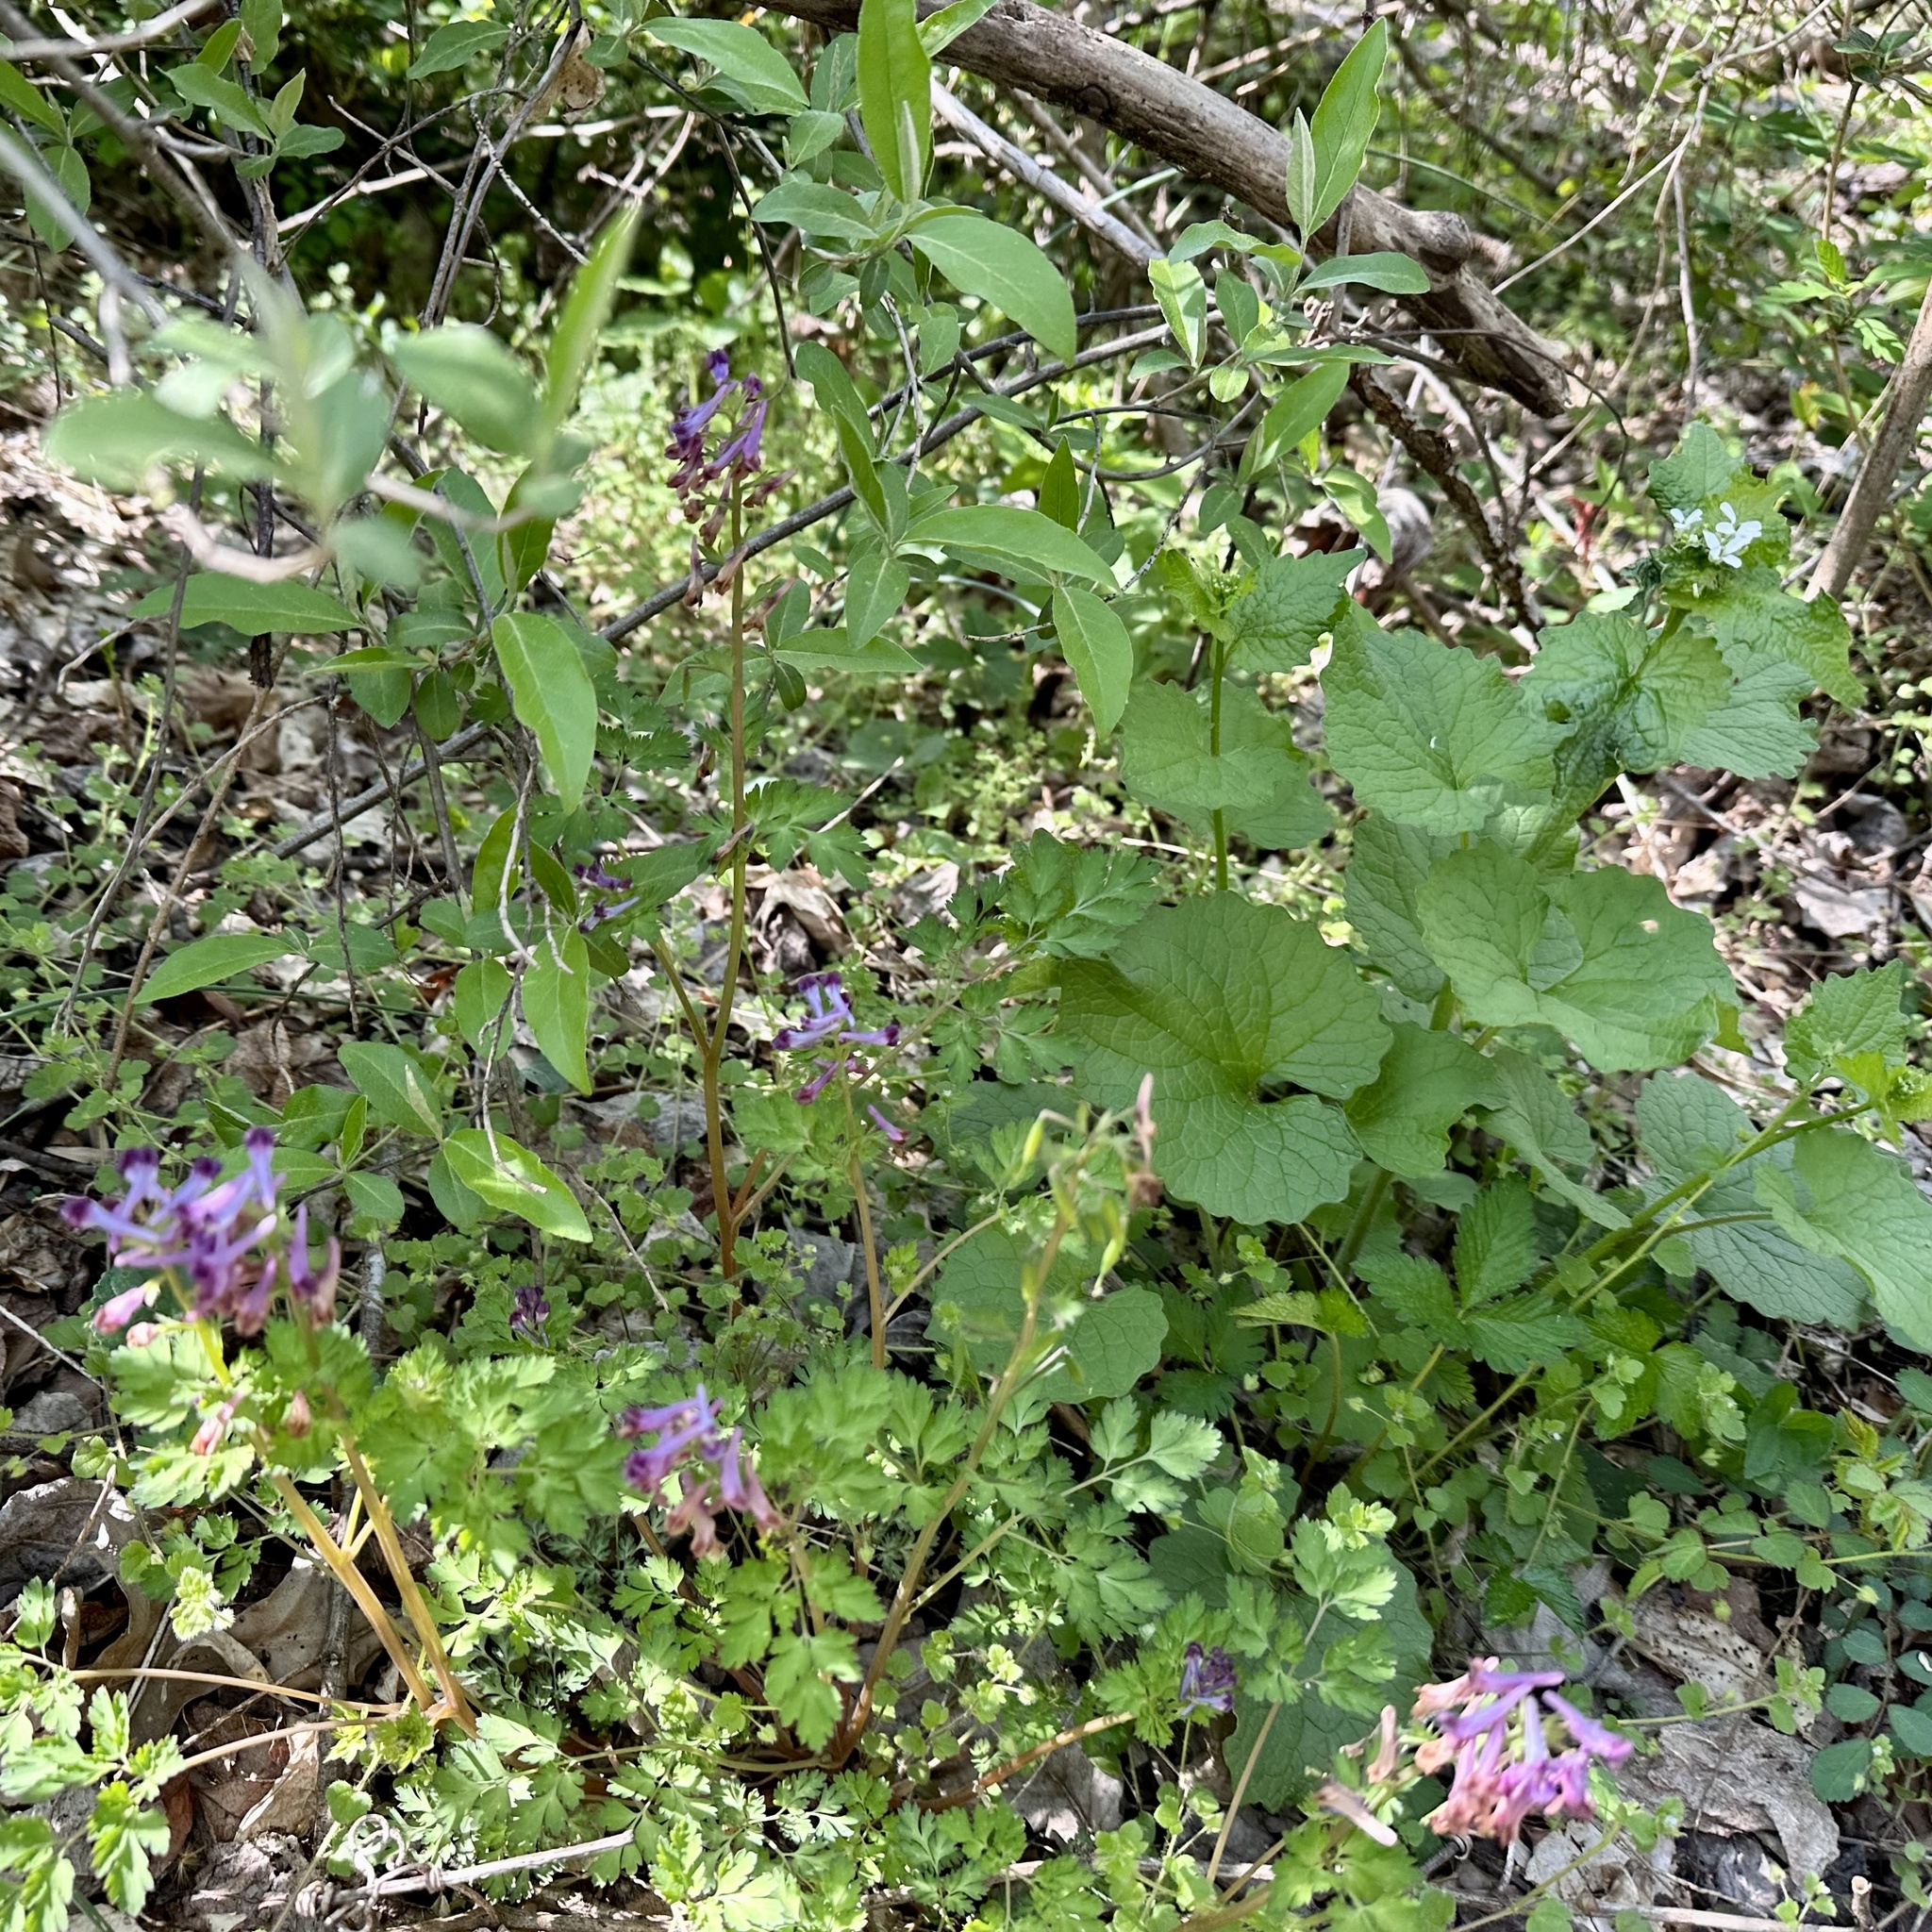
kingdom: Plantae
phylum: Tracheophyta
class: Magnoliopsida
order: Ranunculales
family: Papaveraceae
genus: Corydalis
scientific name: Corydalis incisa
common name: Incised fumewort
